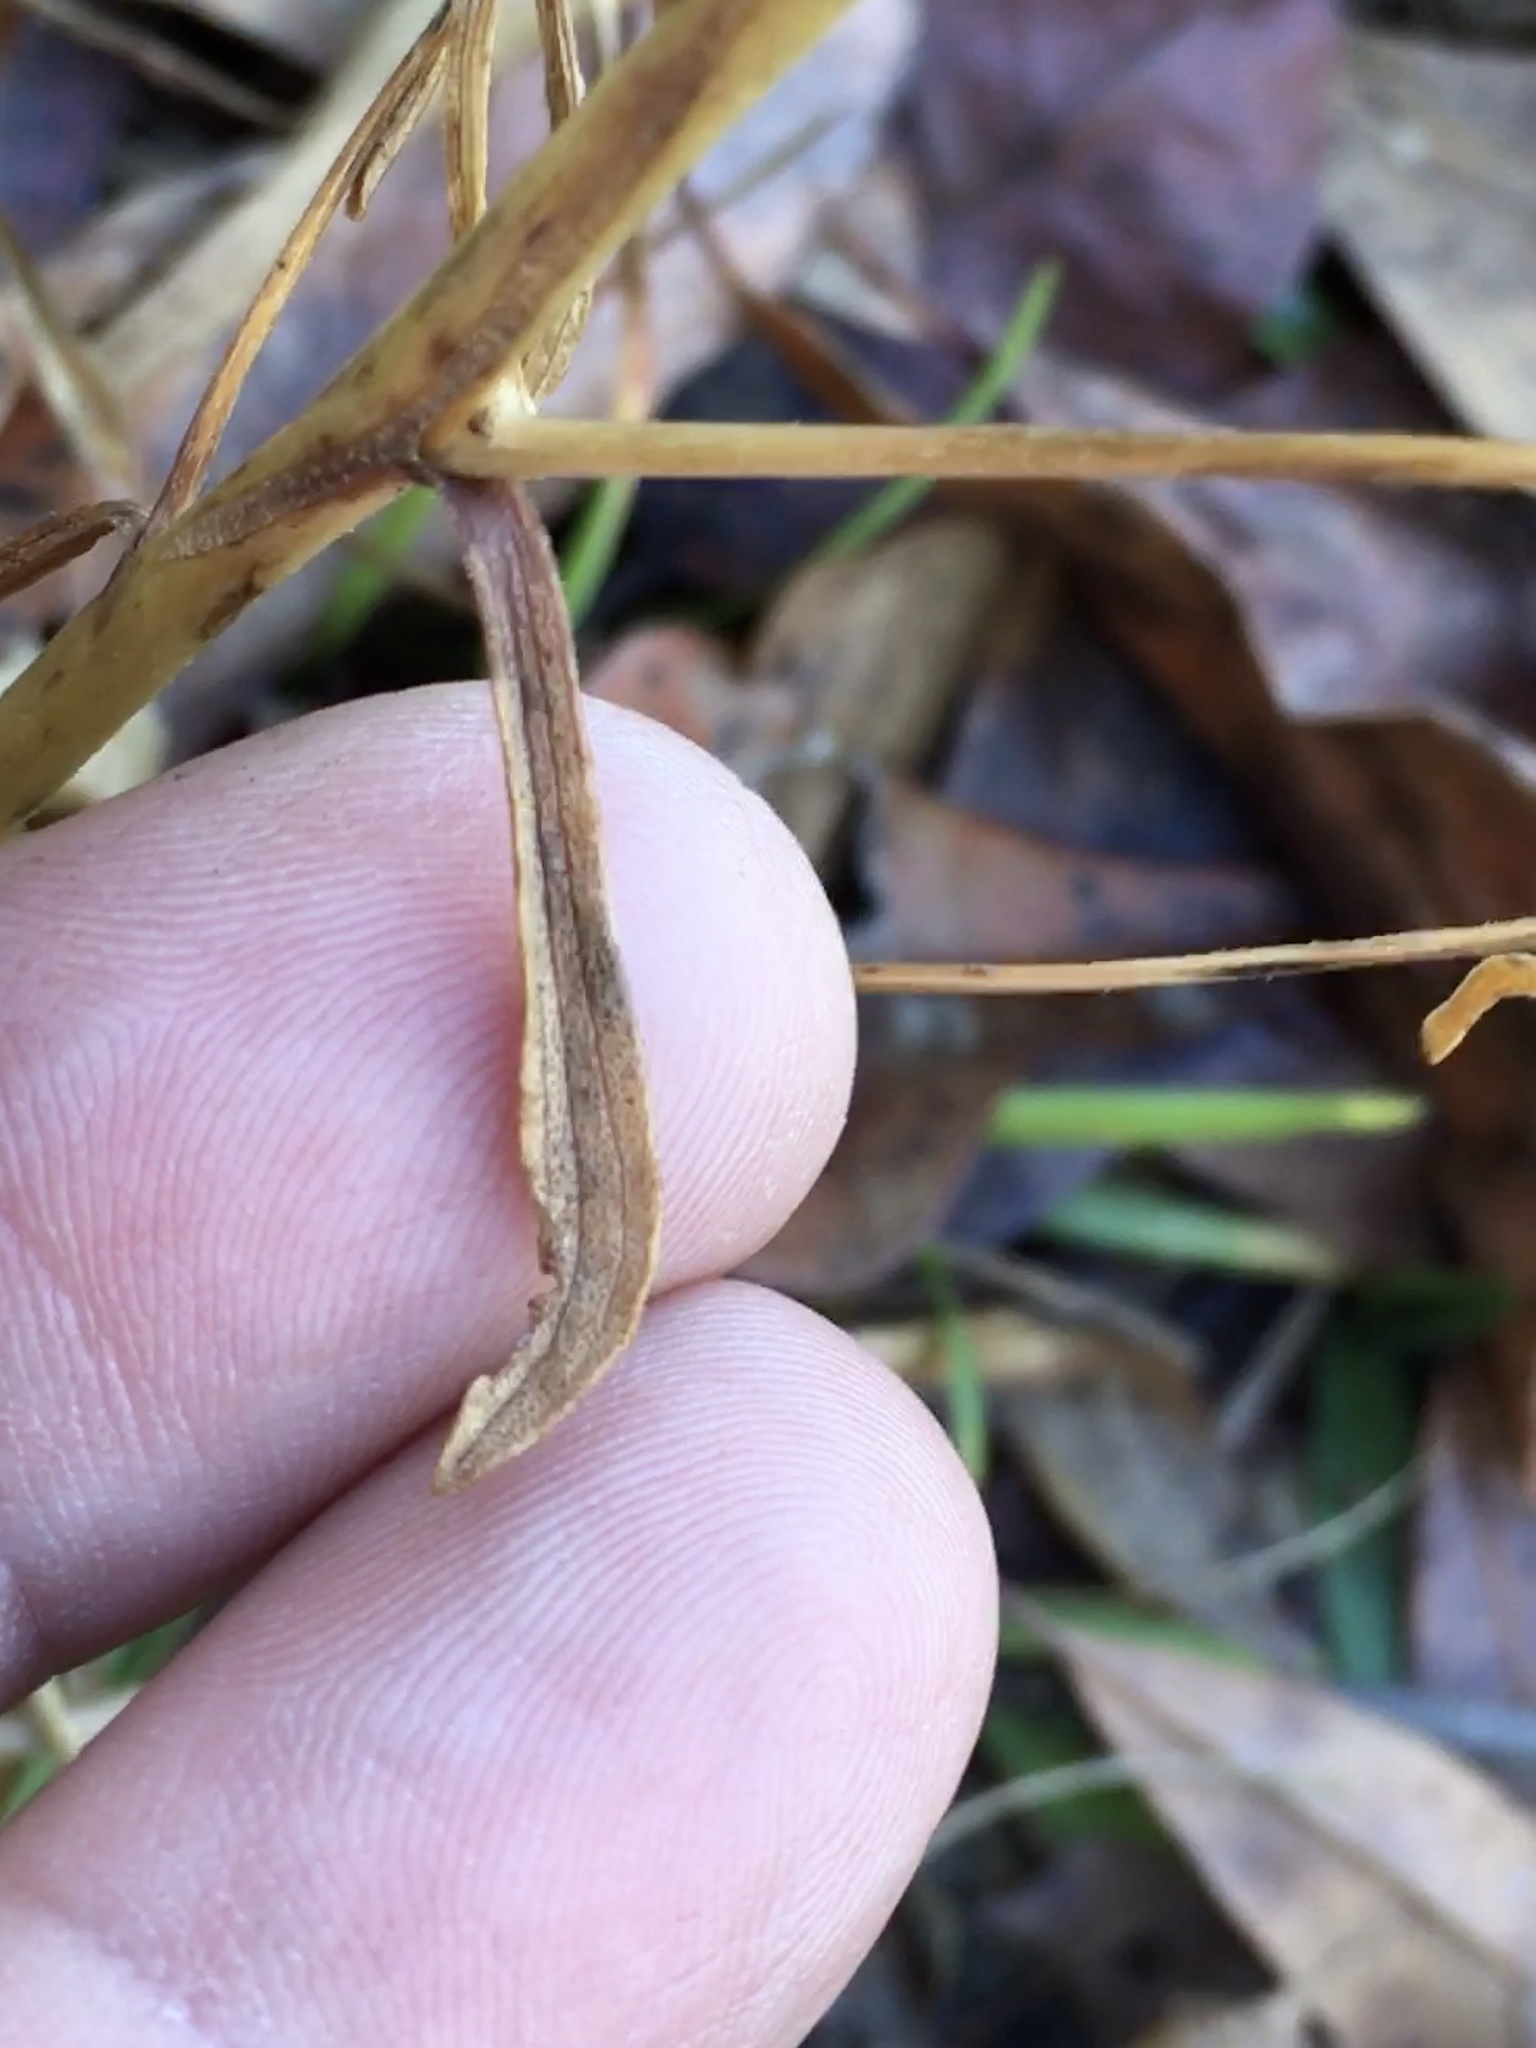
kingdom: Plantae
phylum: Tracheophyta
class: Magnoliopsida
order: Asterales
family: Asteraceae
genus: Carphephorus
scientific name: Carphephorus bellidifolius
